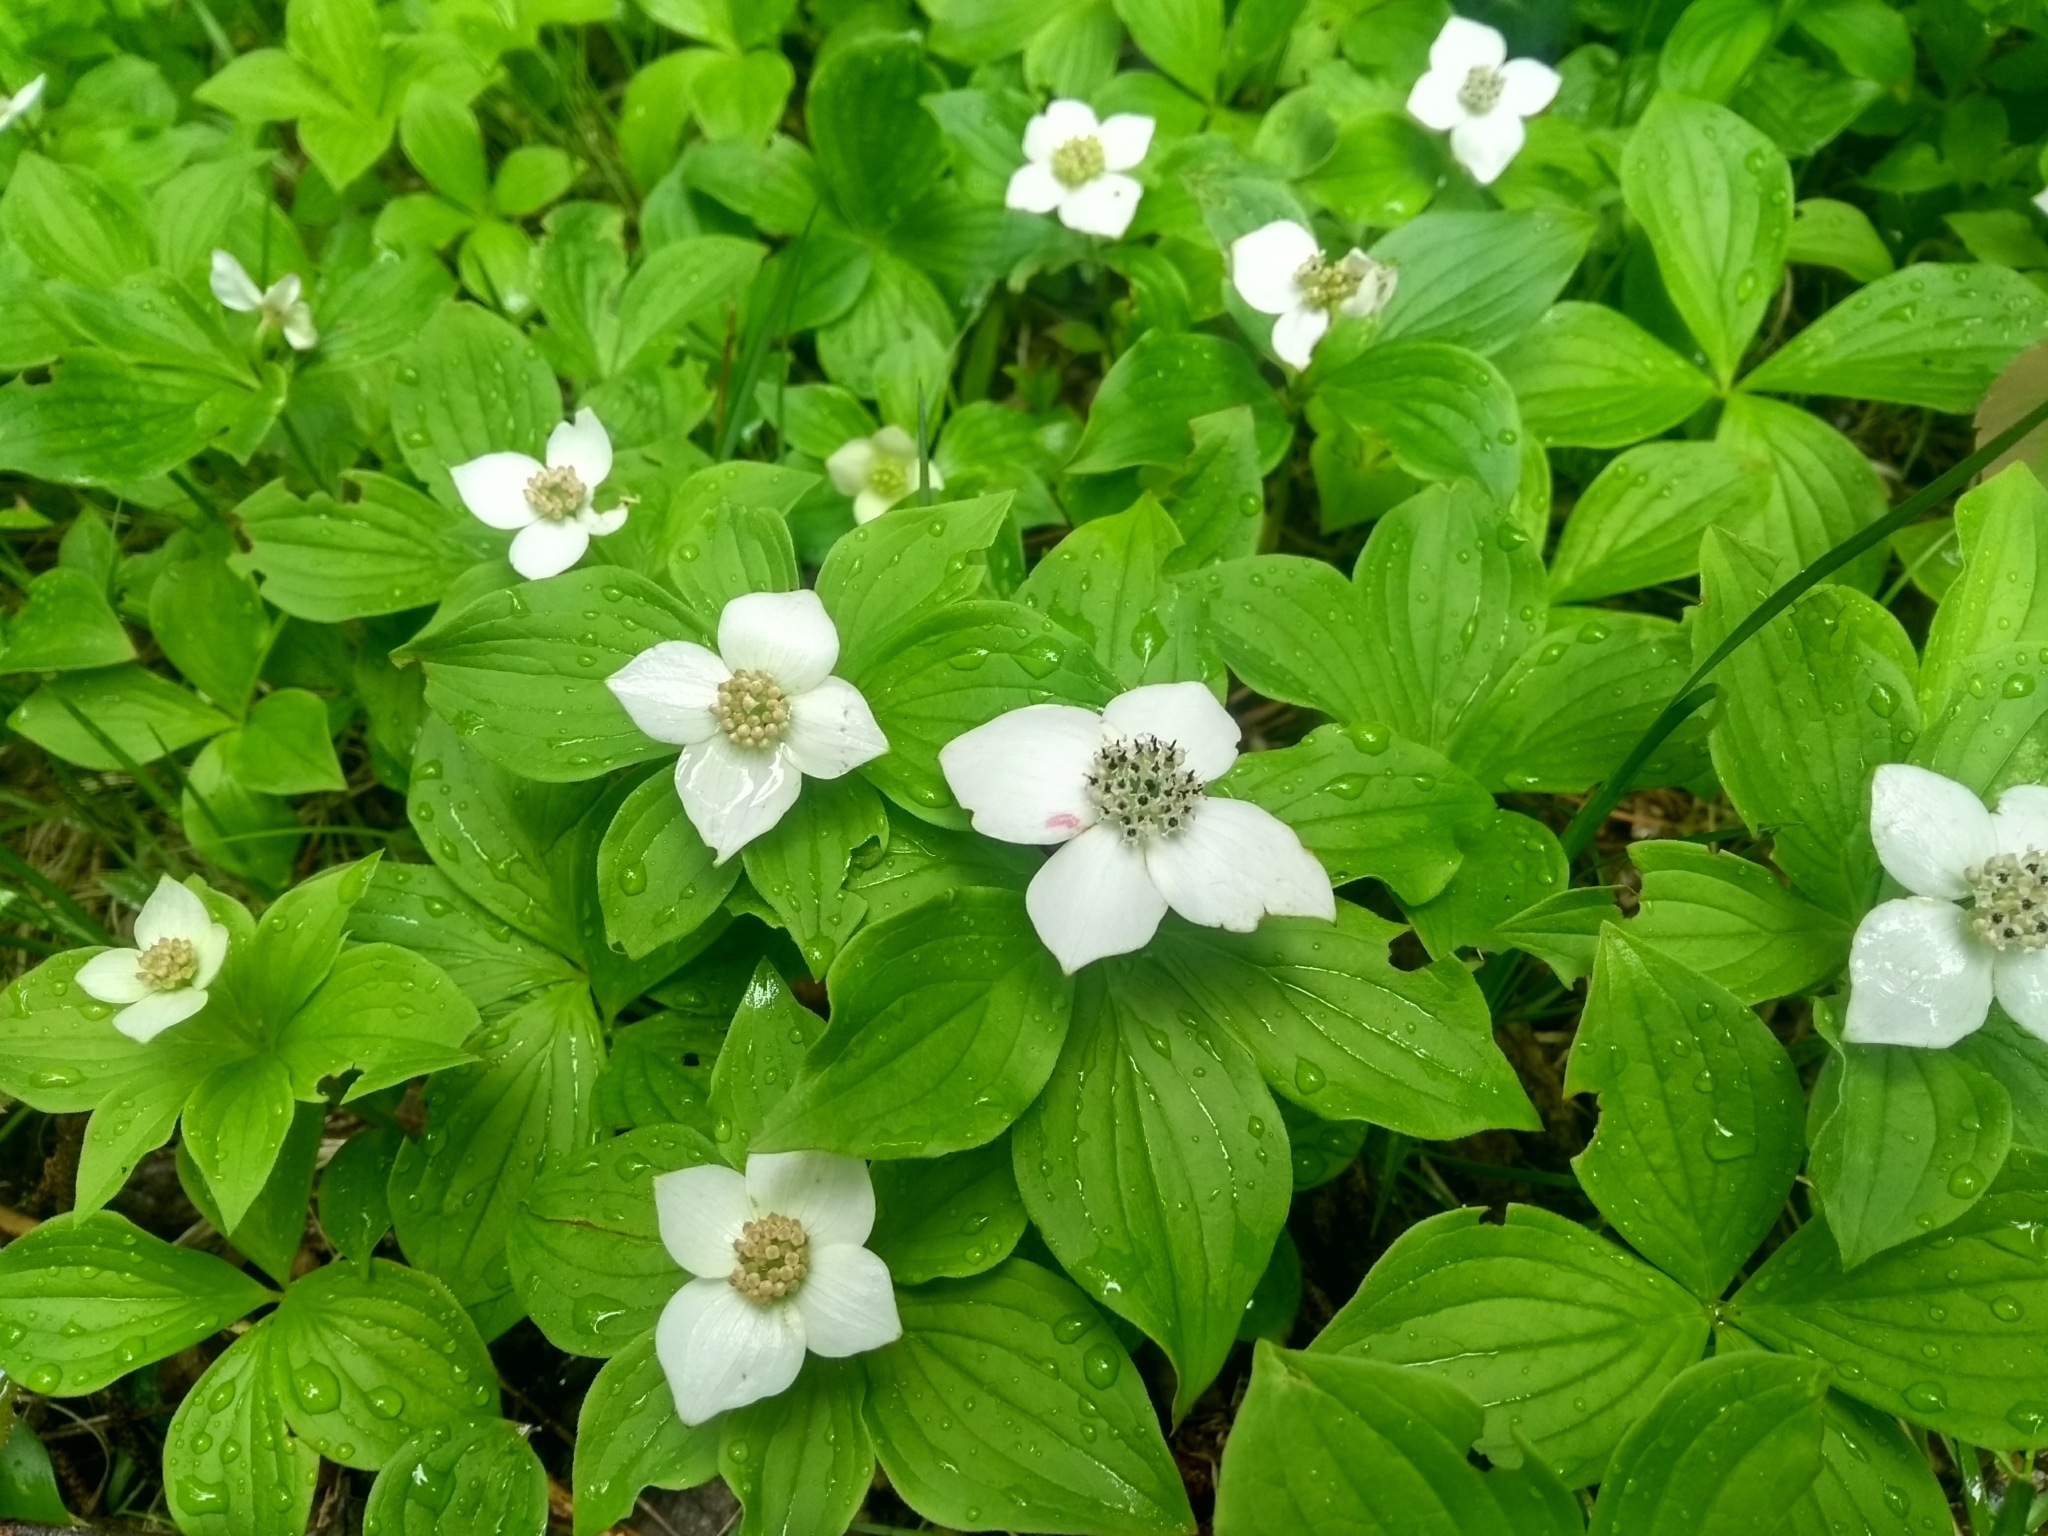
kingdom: Plantae
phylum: Tracheophyta
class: Magnoliopsida
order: Cornales
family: Cornaceae
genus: Cornus
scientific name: Cornus canadensis
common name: Creeping dogwood
